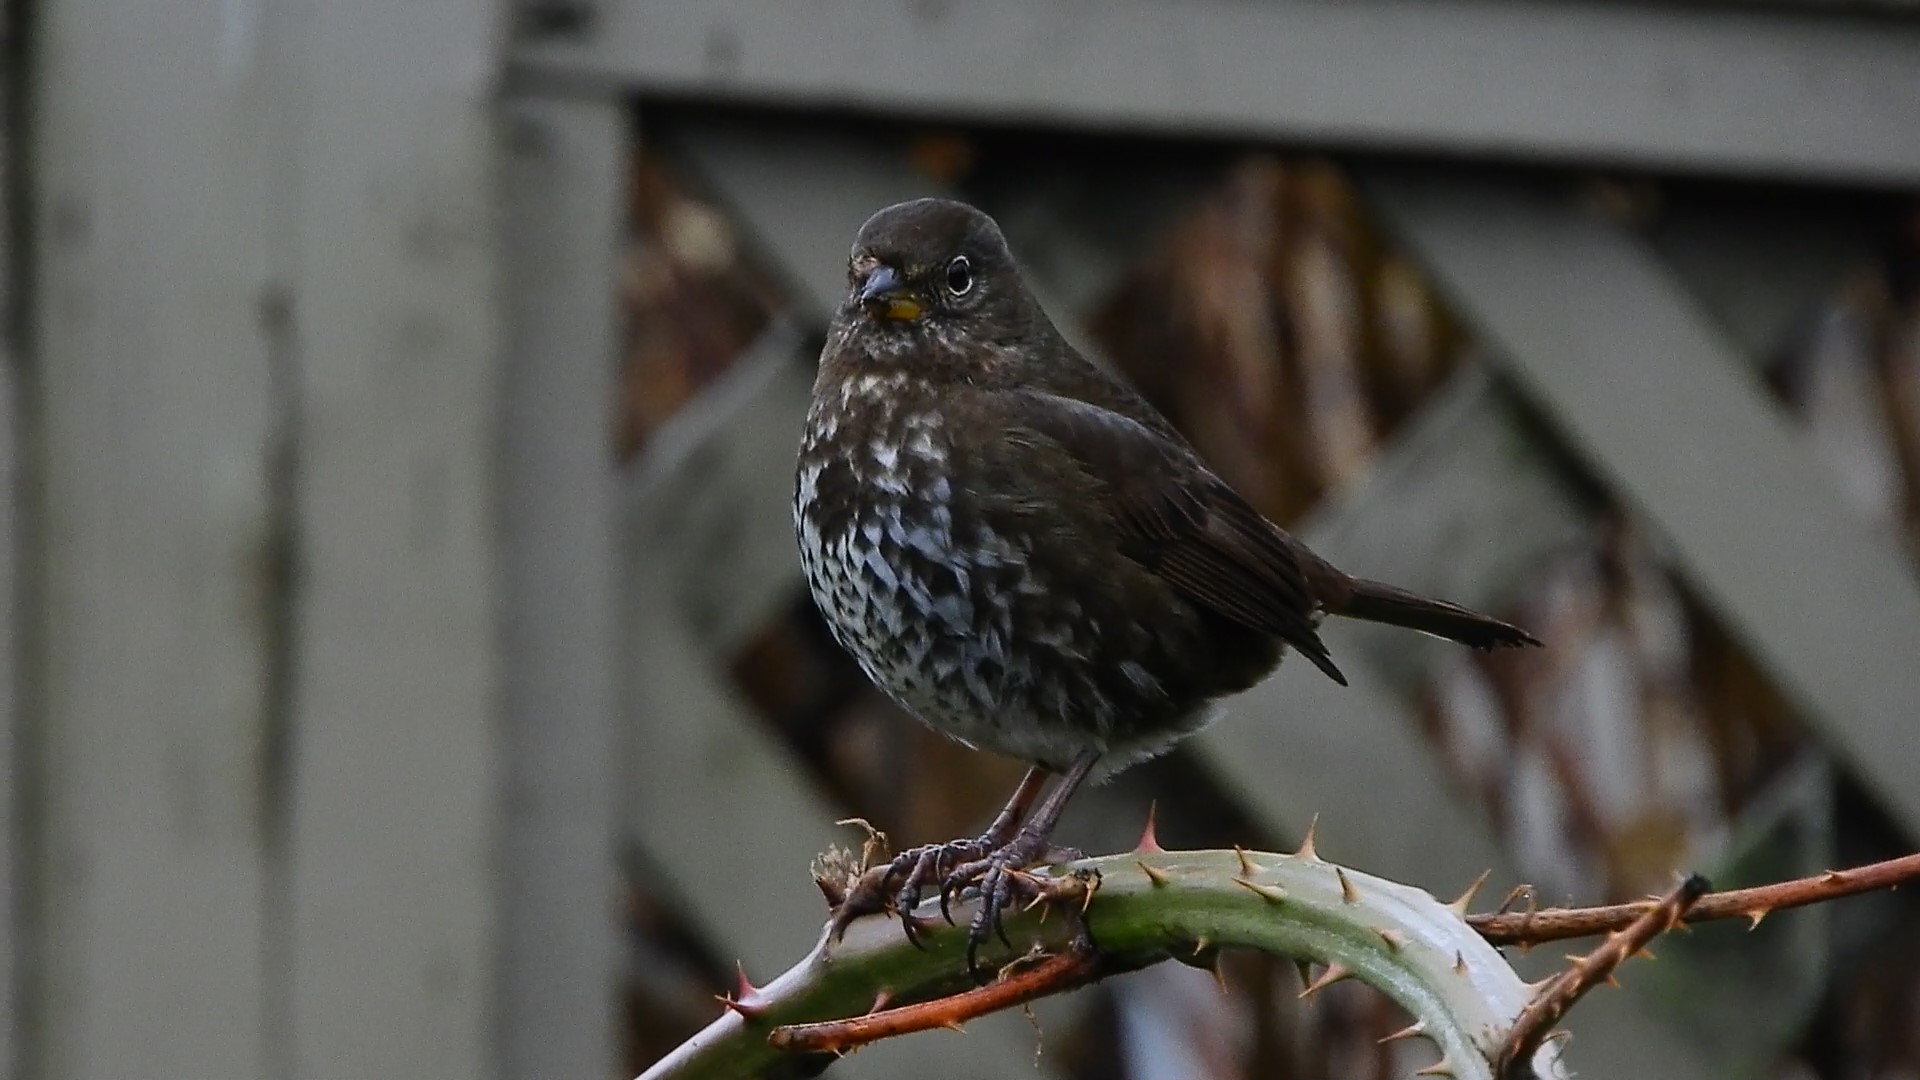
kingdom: Animalia
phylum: Chordata
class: Aves
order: Passeriformes
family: Passerellidae
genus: Passerella
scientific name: Passerella iliaca
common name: Fox sparrow
